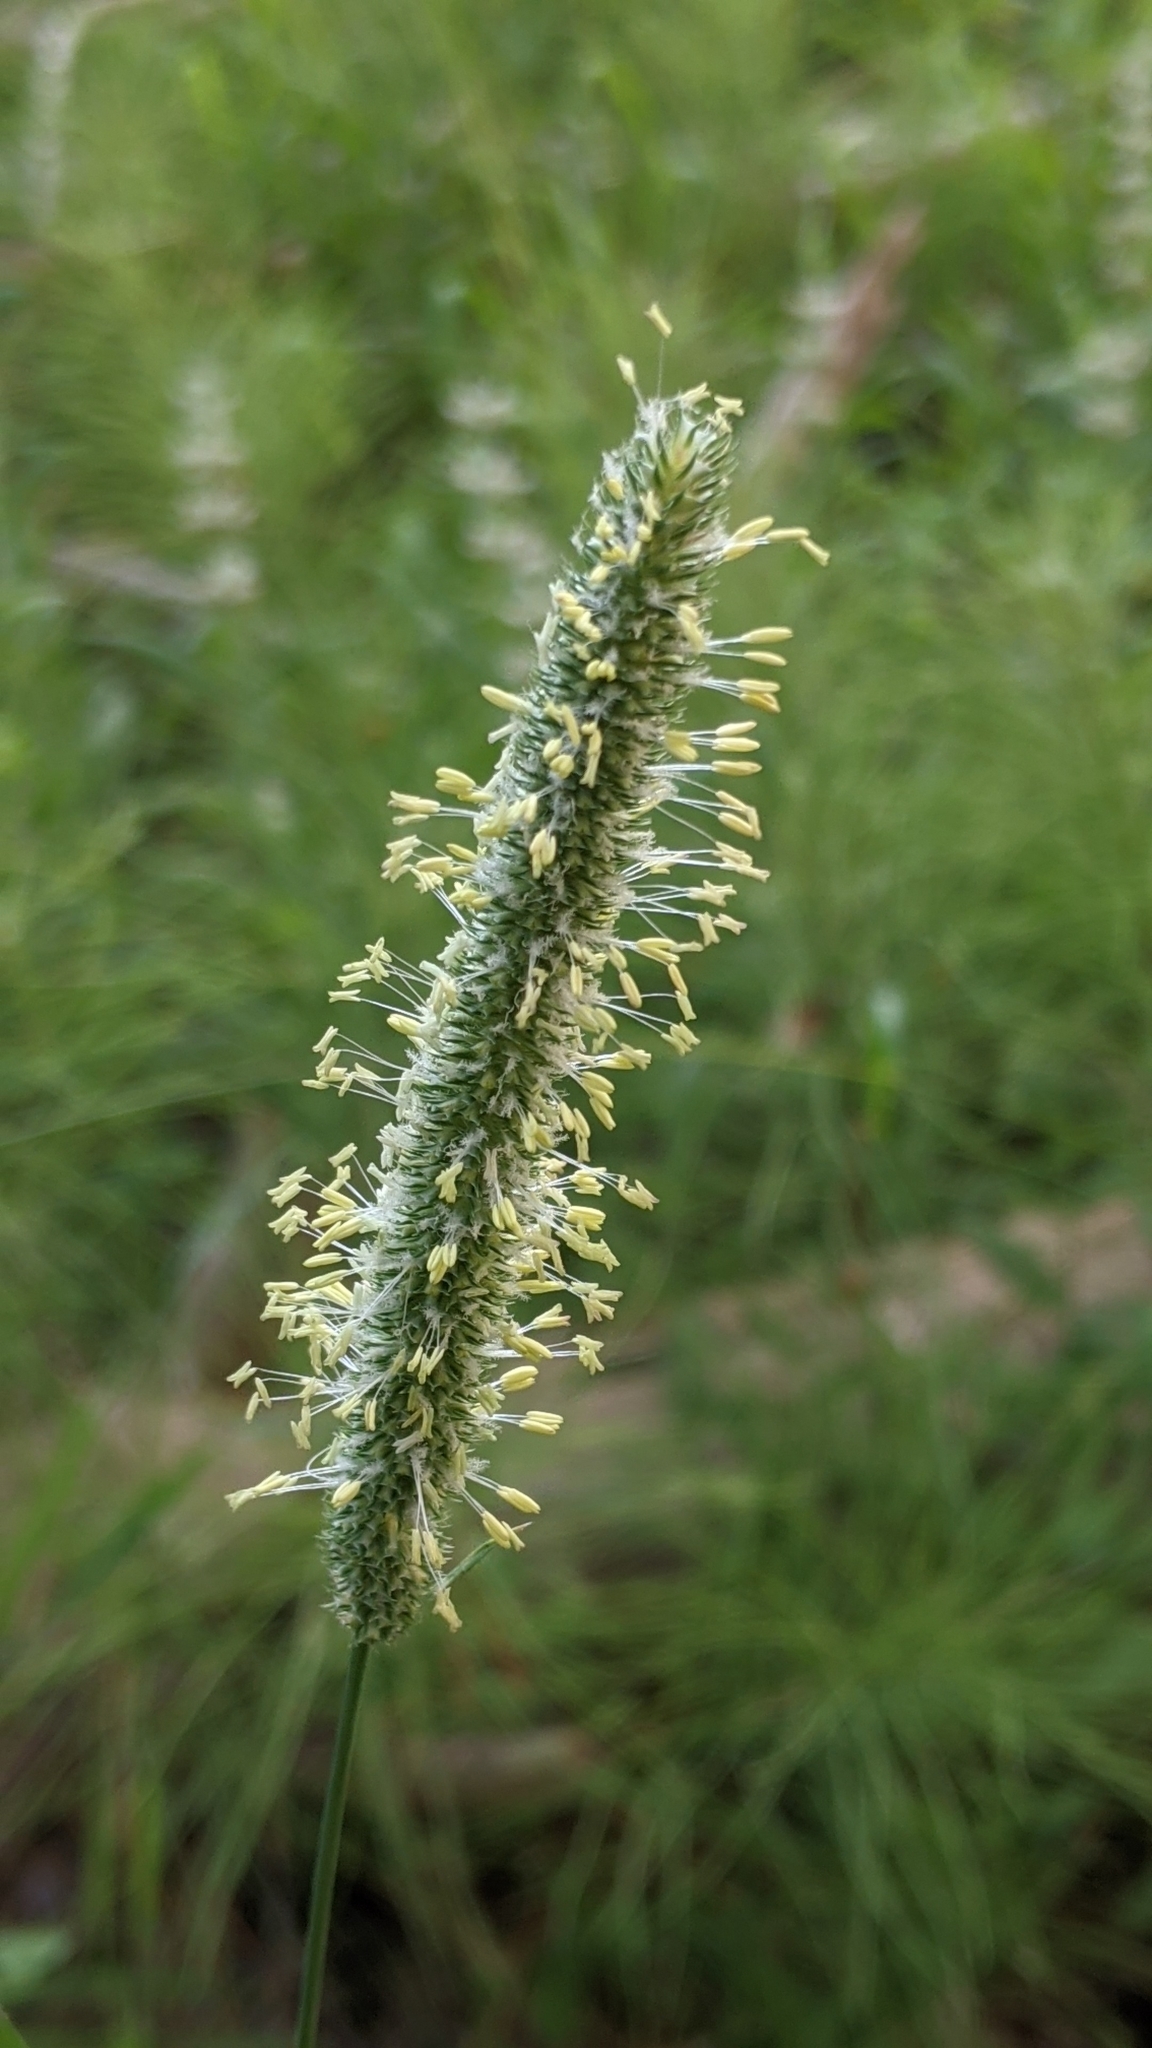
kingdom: Plantae
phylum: Tracheophyta
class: Liliopsida
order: Poales
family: Poaceae
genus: Phleum
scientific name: Phleum pratense
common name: Timothy grass
